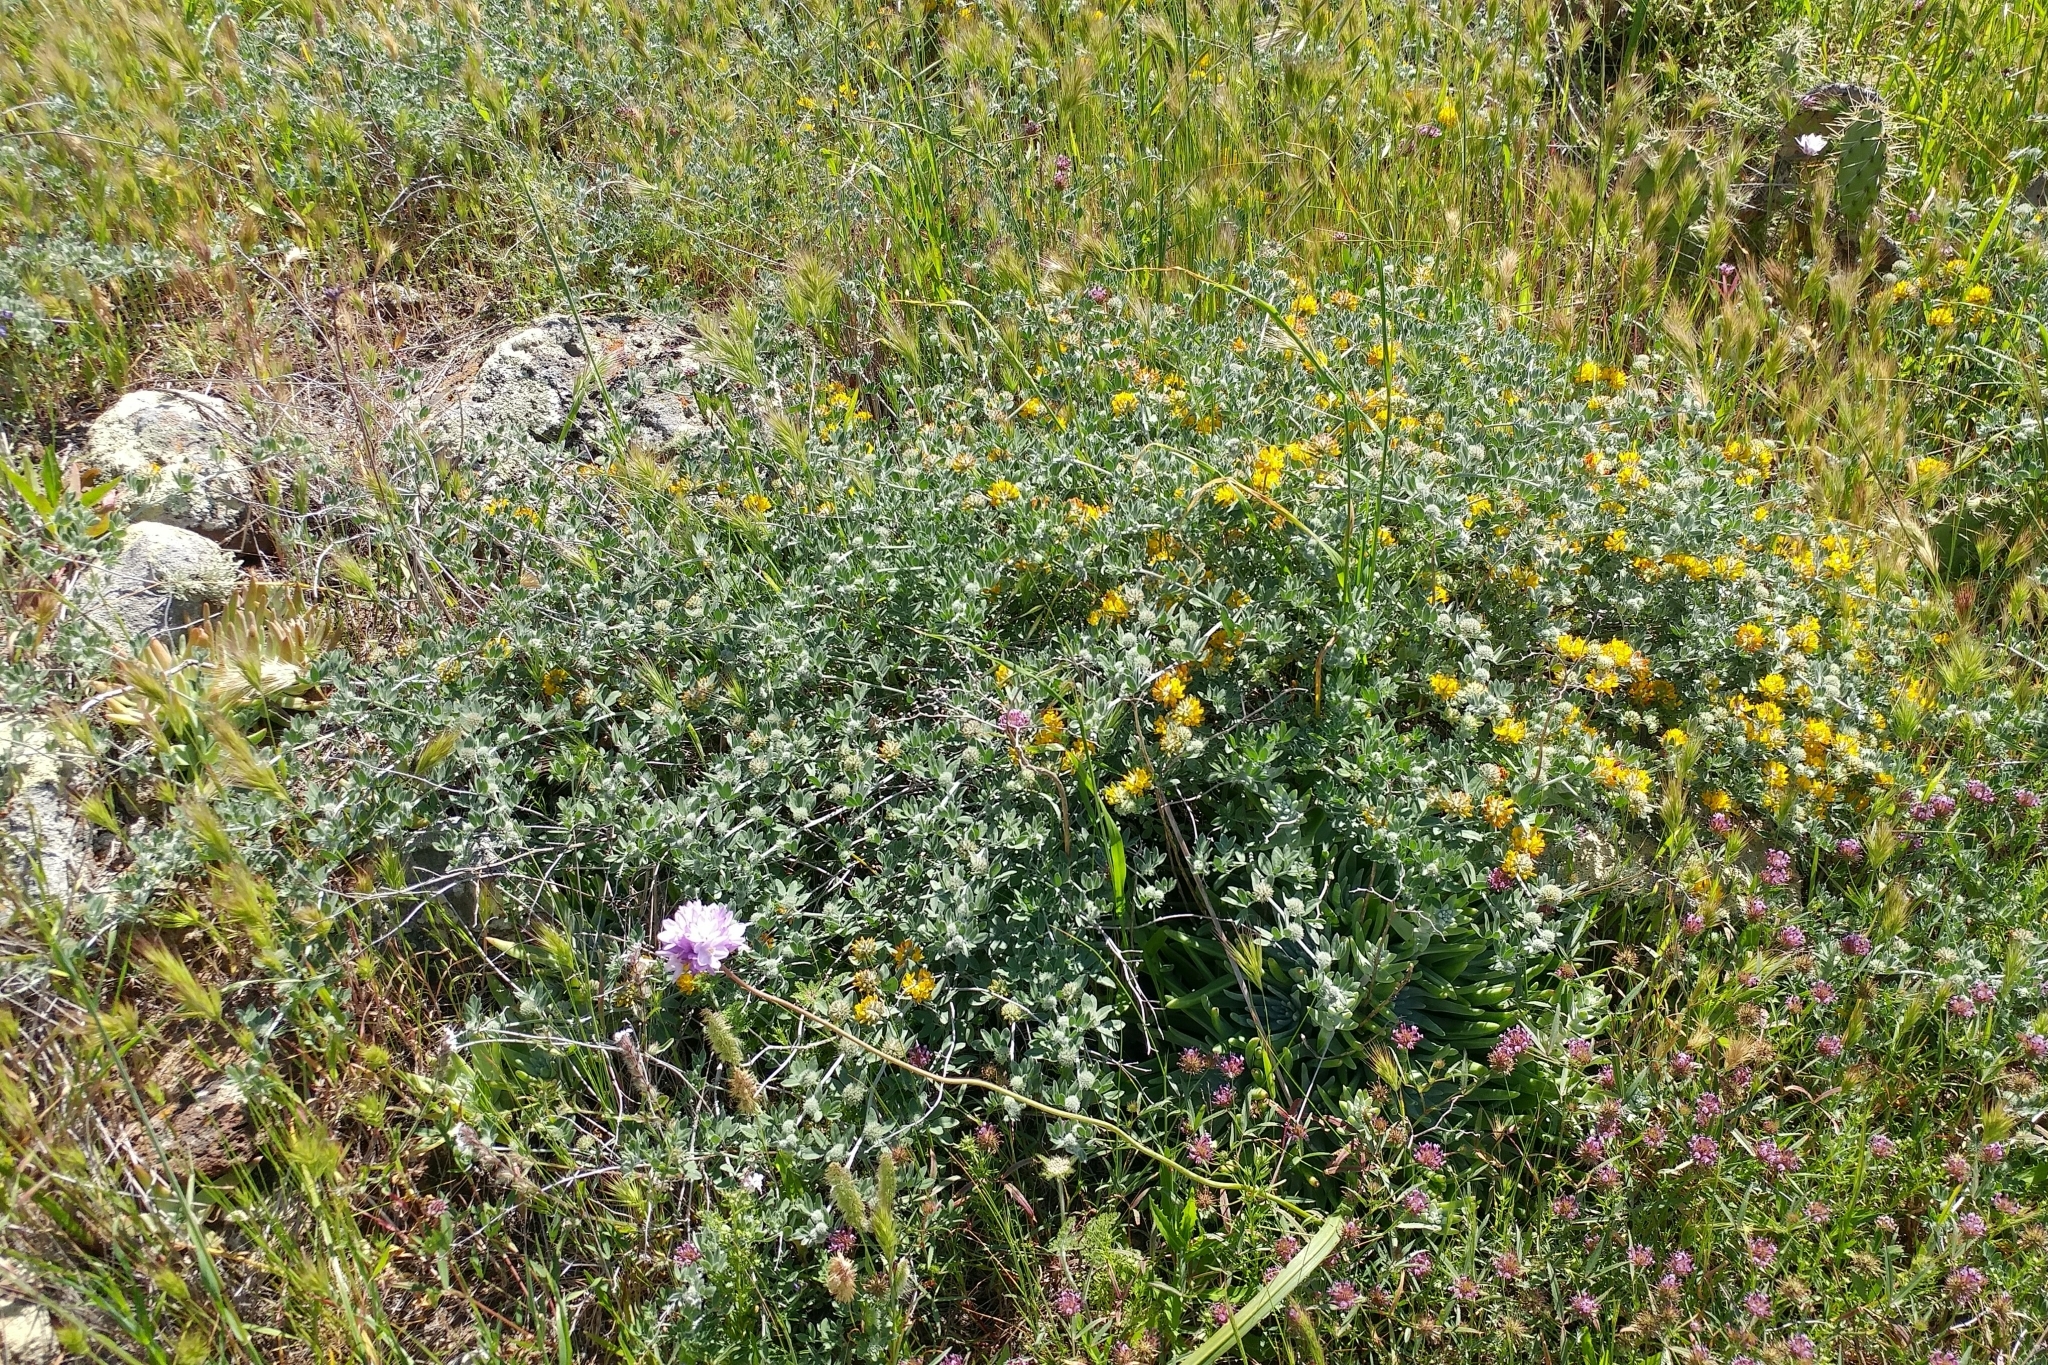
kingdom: Plantae
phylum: Tracheophyta
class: Magnoliopsida
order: Fabales
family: Fabaceae
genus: Acmispon
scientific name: Acmispon argophyllus
